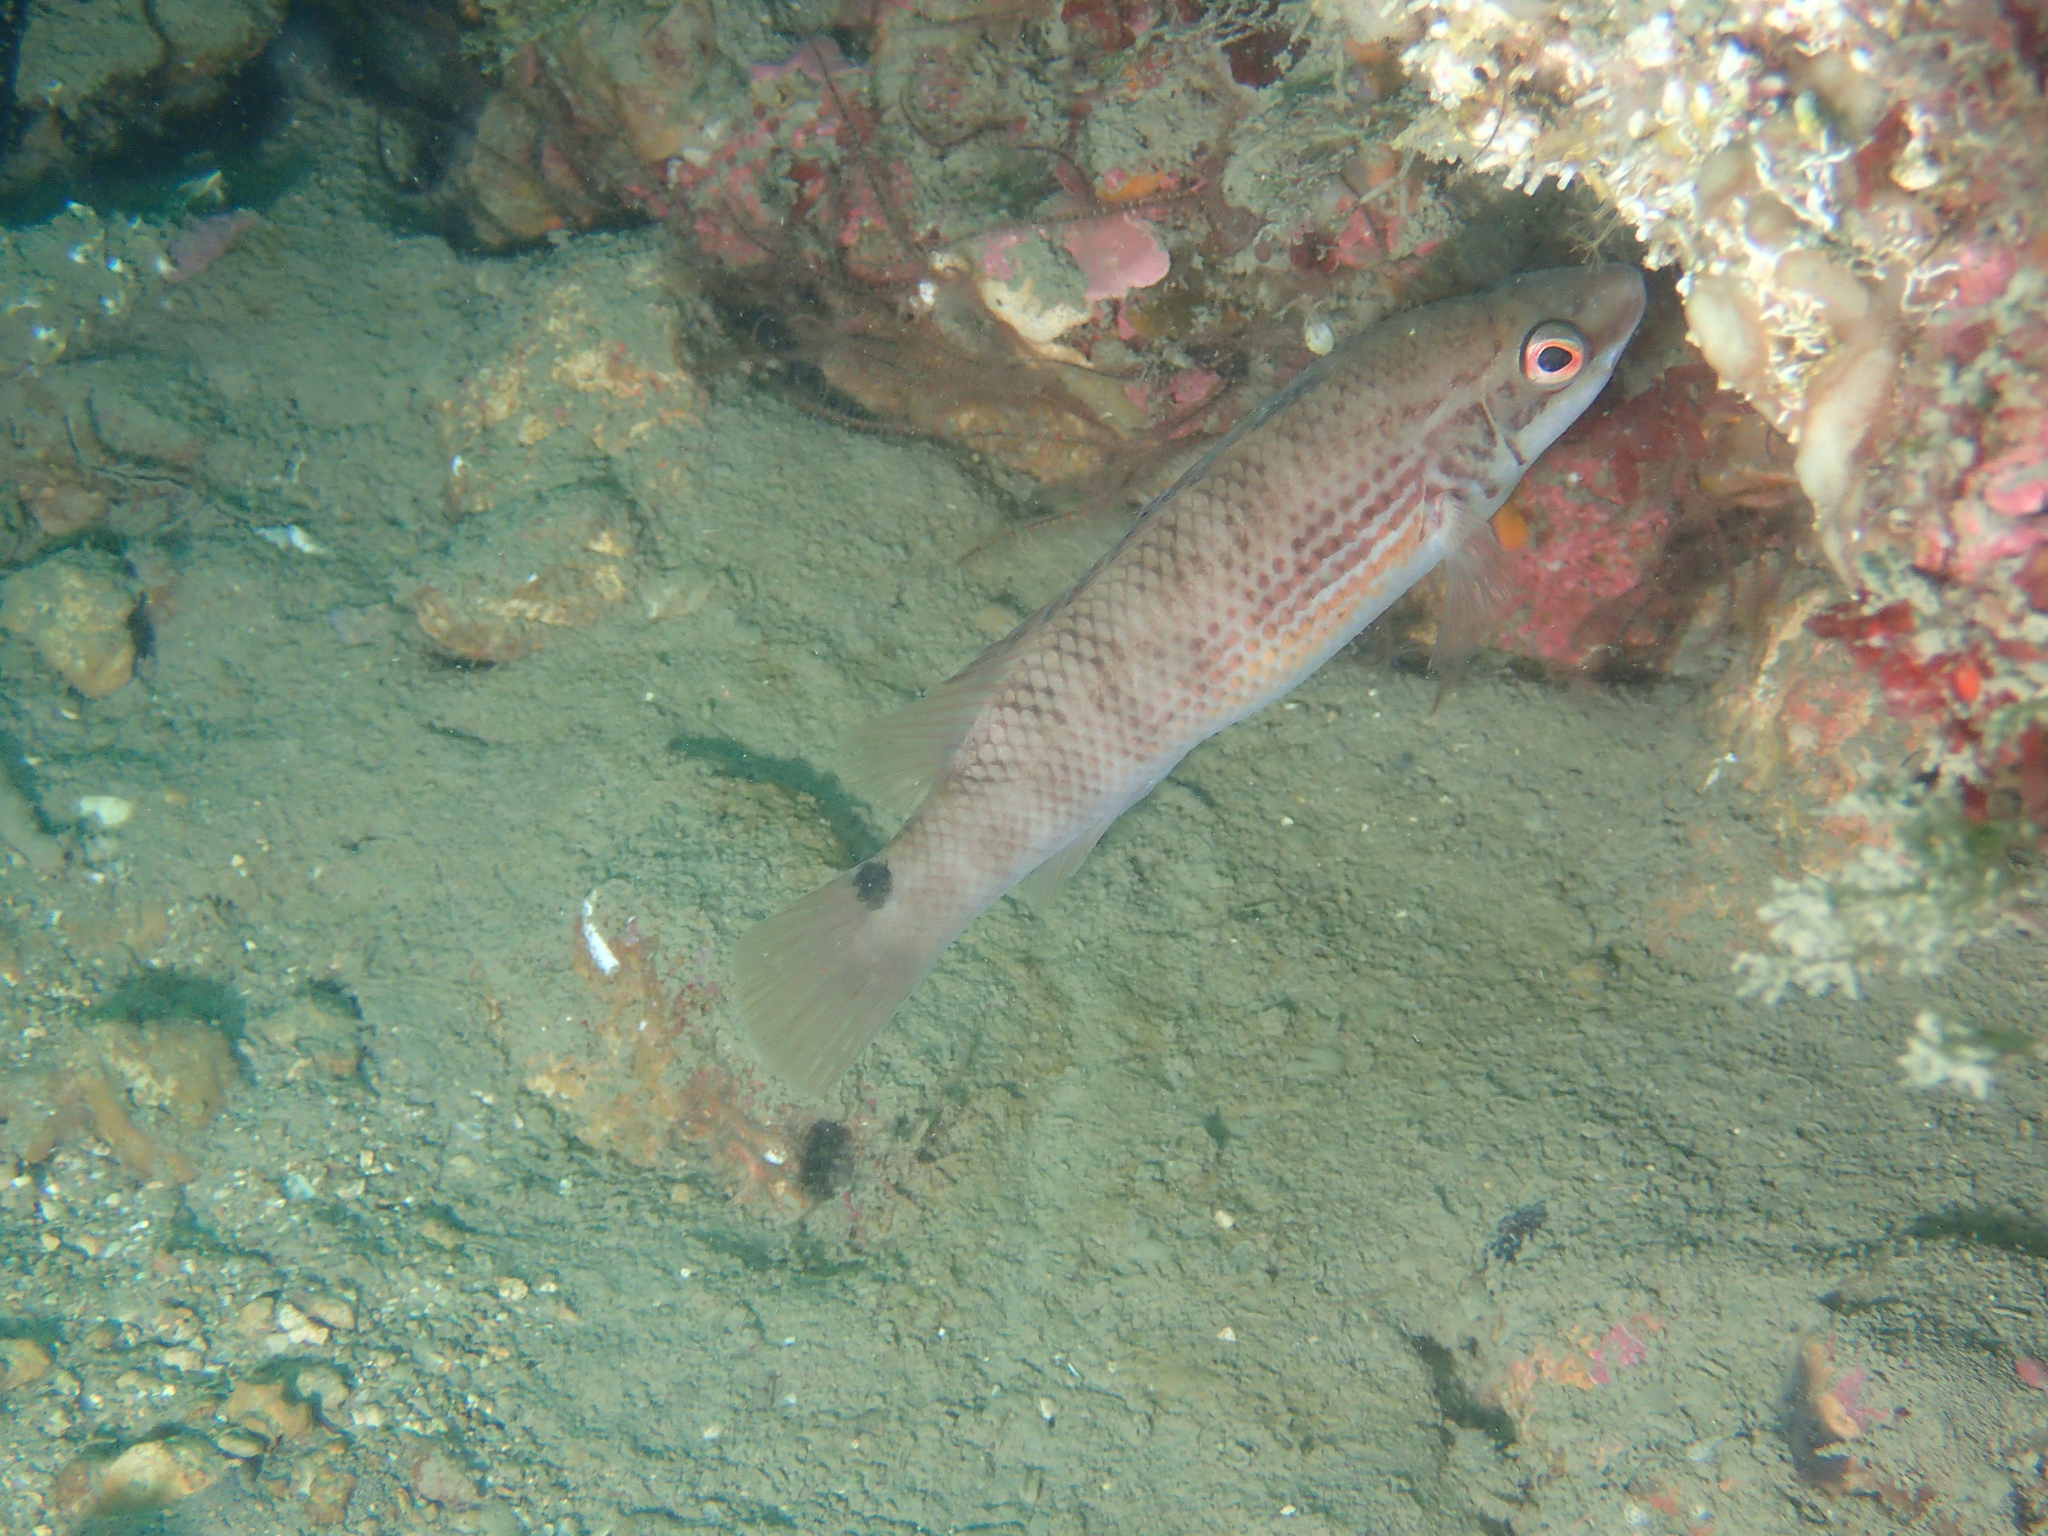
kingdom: Animalia
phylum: Chordata
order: Perciformes
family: Labridae
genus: Ctenolabrus
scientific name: Ctenolabrus rupestris
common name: Goldsinny
